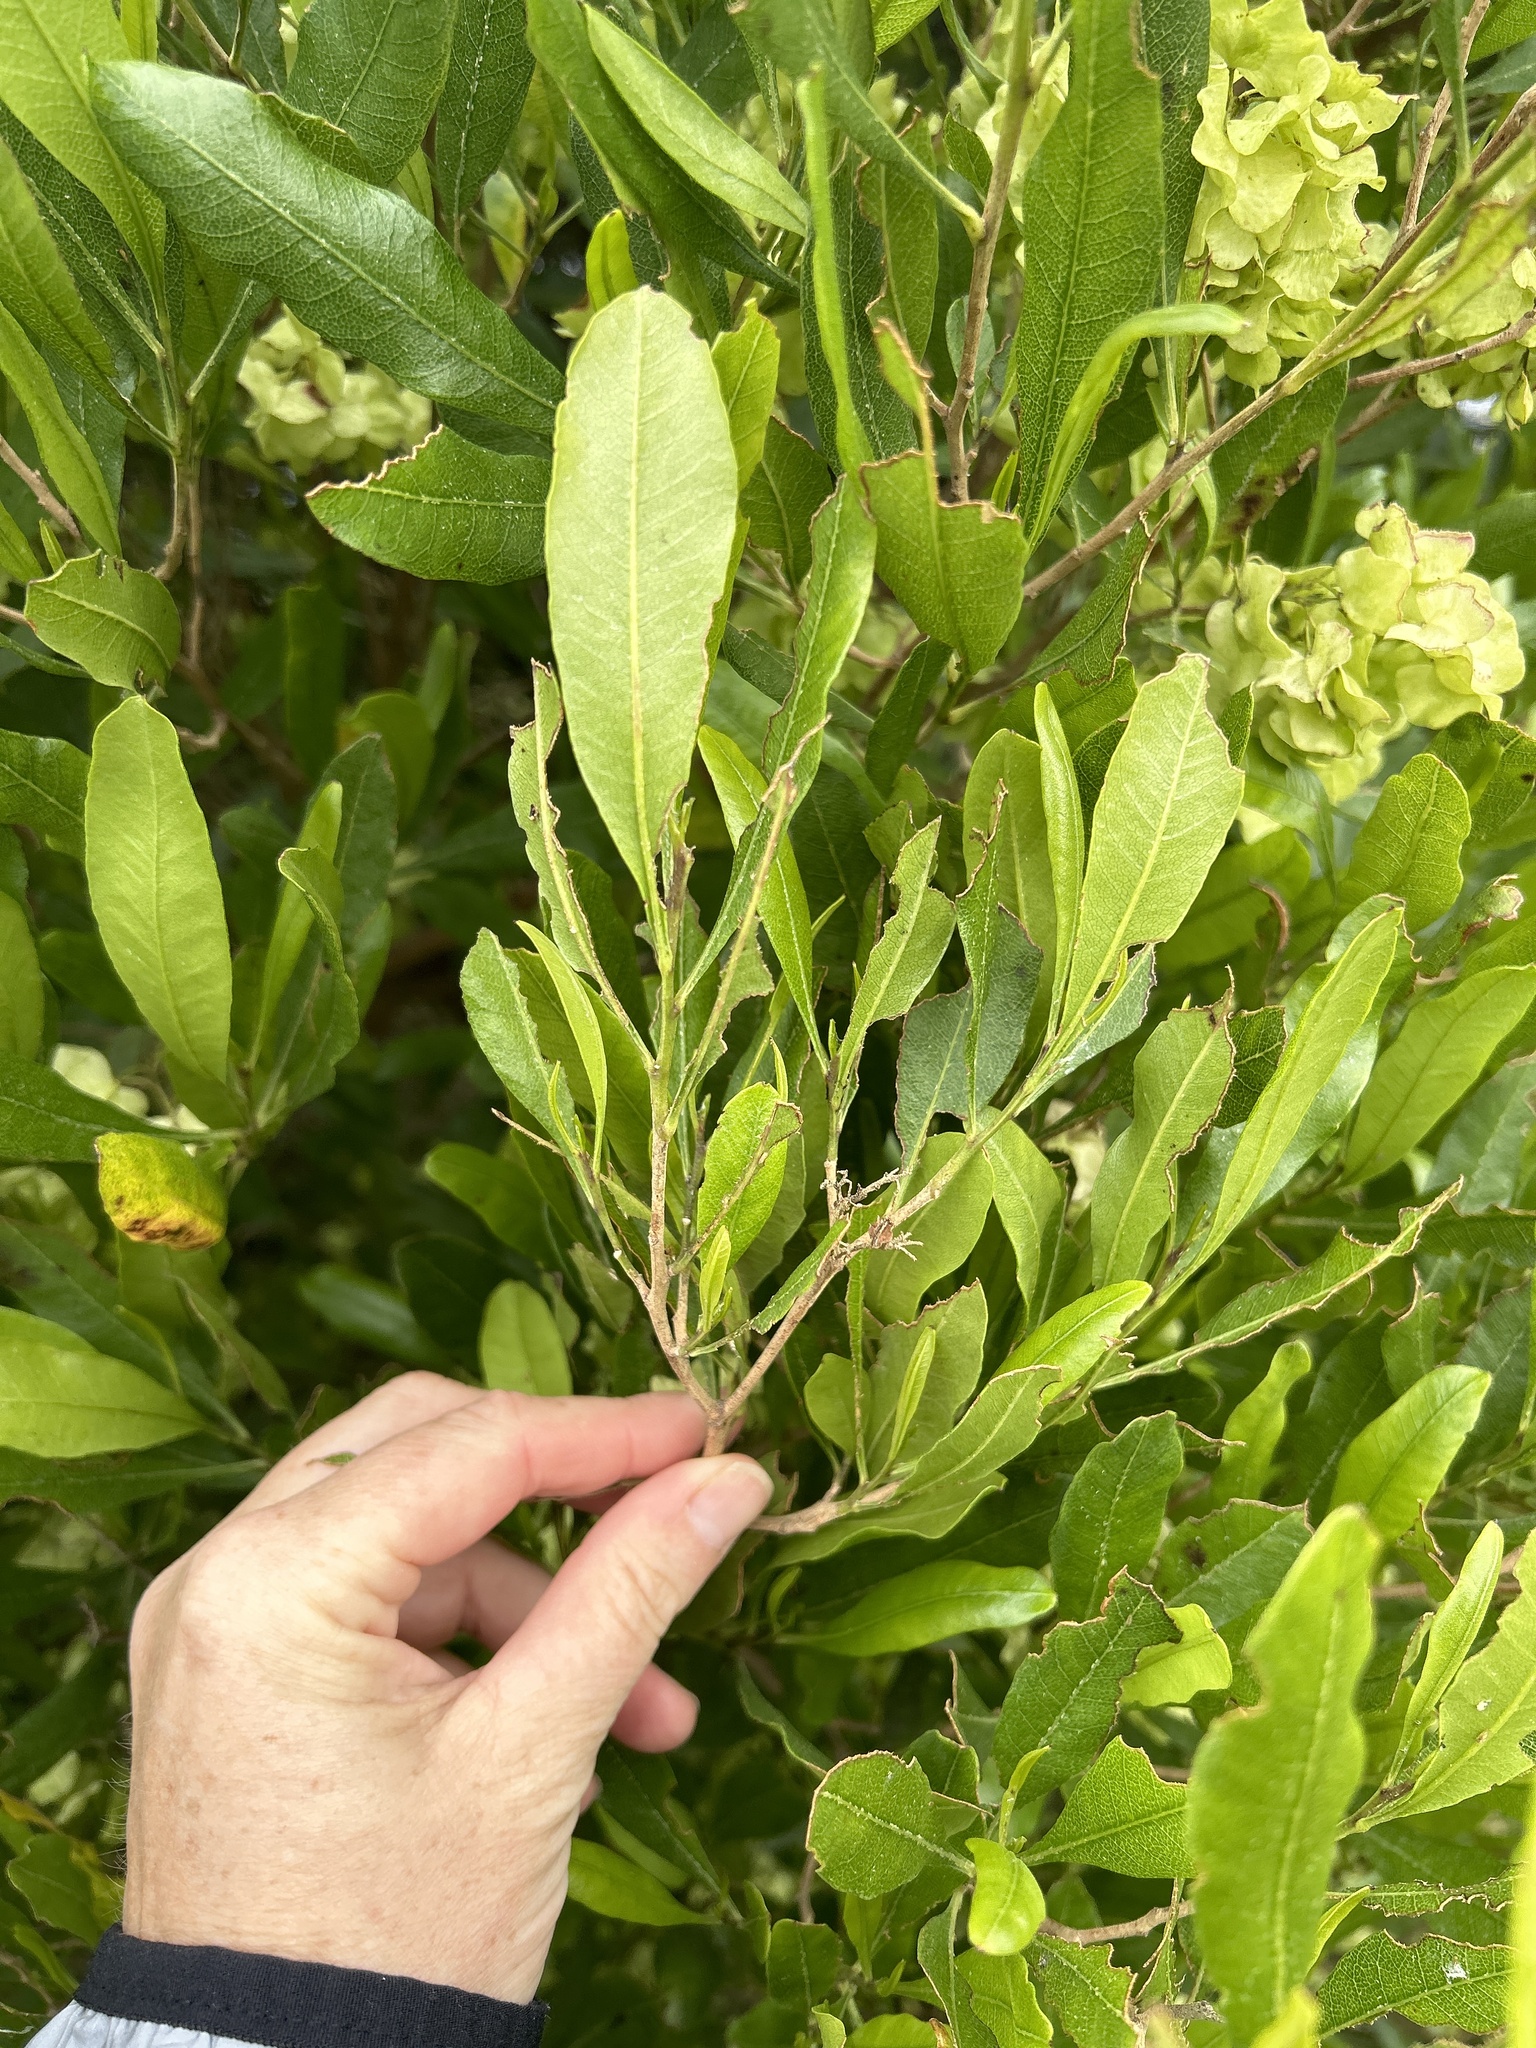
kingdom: Plantae
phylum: Tracheophyta
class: Magnoliopsida
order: Sapindales
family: Sapindaceae
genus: Dodonaea
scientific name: Dodonaea viscosa
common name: Hopbush
